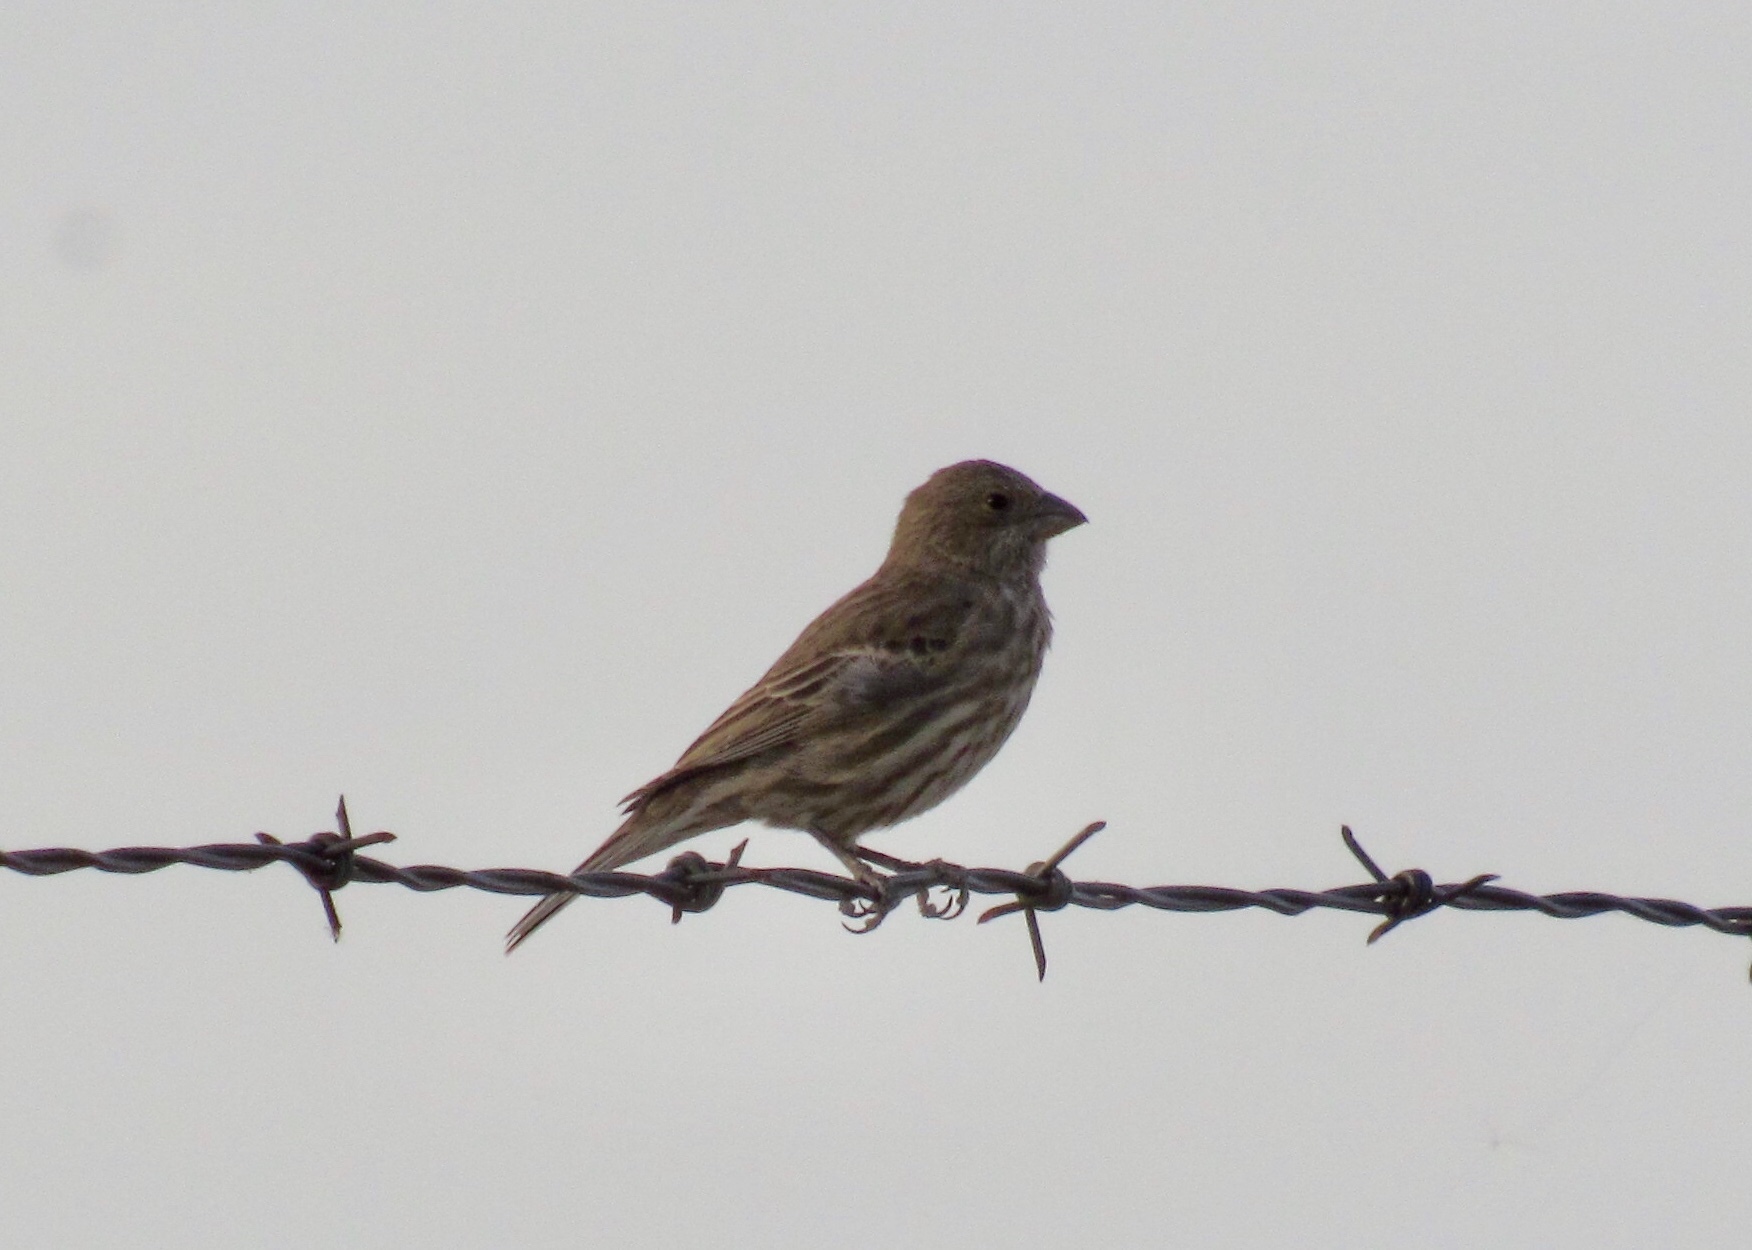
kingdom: Animalia
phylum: Chordata
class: Aves
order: Passeriformes
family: Fringillidae
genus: Haemorhous
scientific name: Haemorhous mexicanus
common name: House finch
